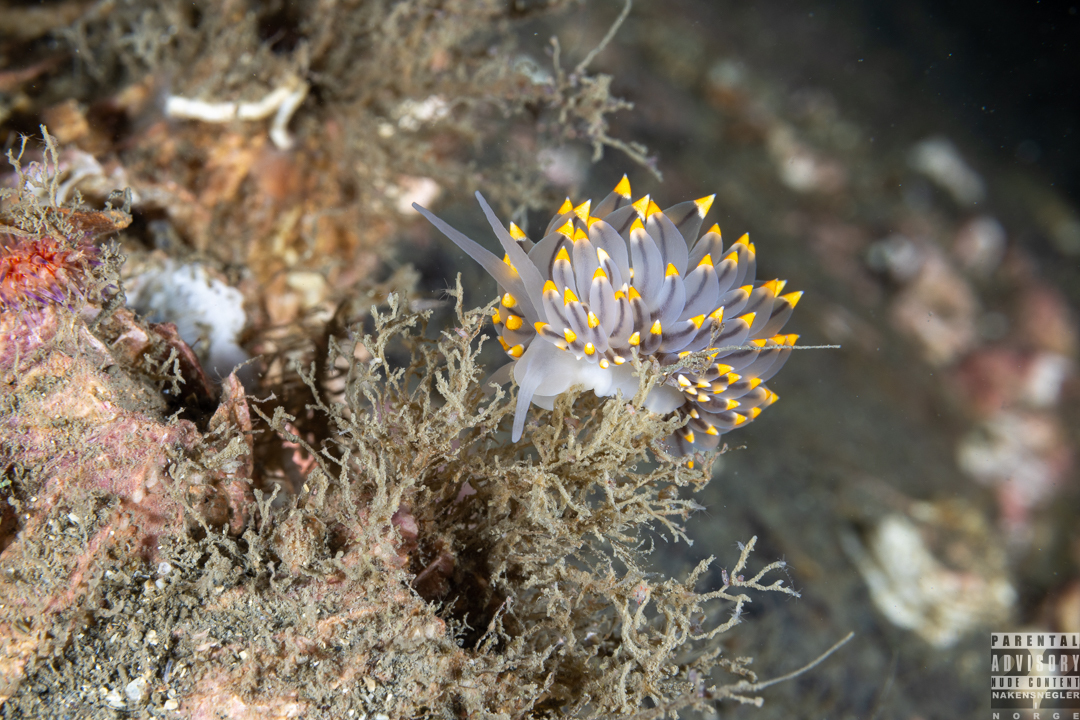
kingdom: Animalia
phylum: Mollusca
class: Gastropoda
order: Nudibranchia
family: Eubranchidae
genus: Eubranchus
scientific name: Eubranchus tricolor
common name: Painted balloon aeolis
